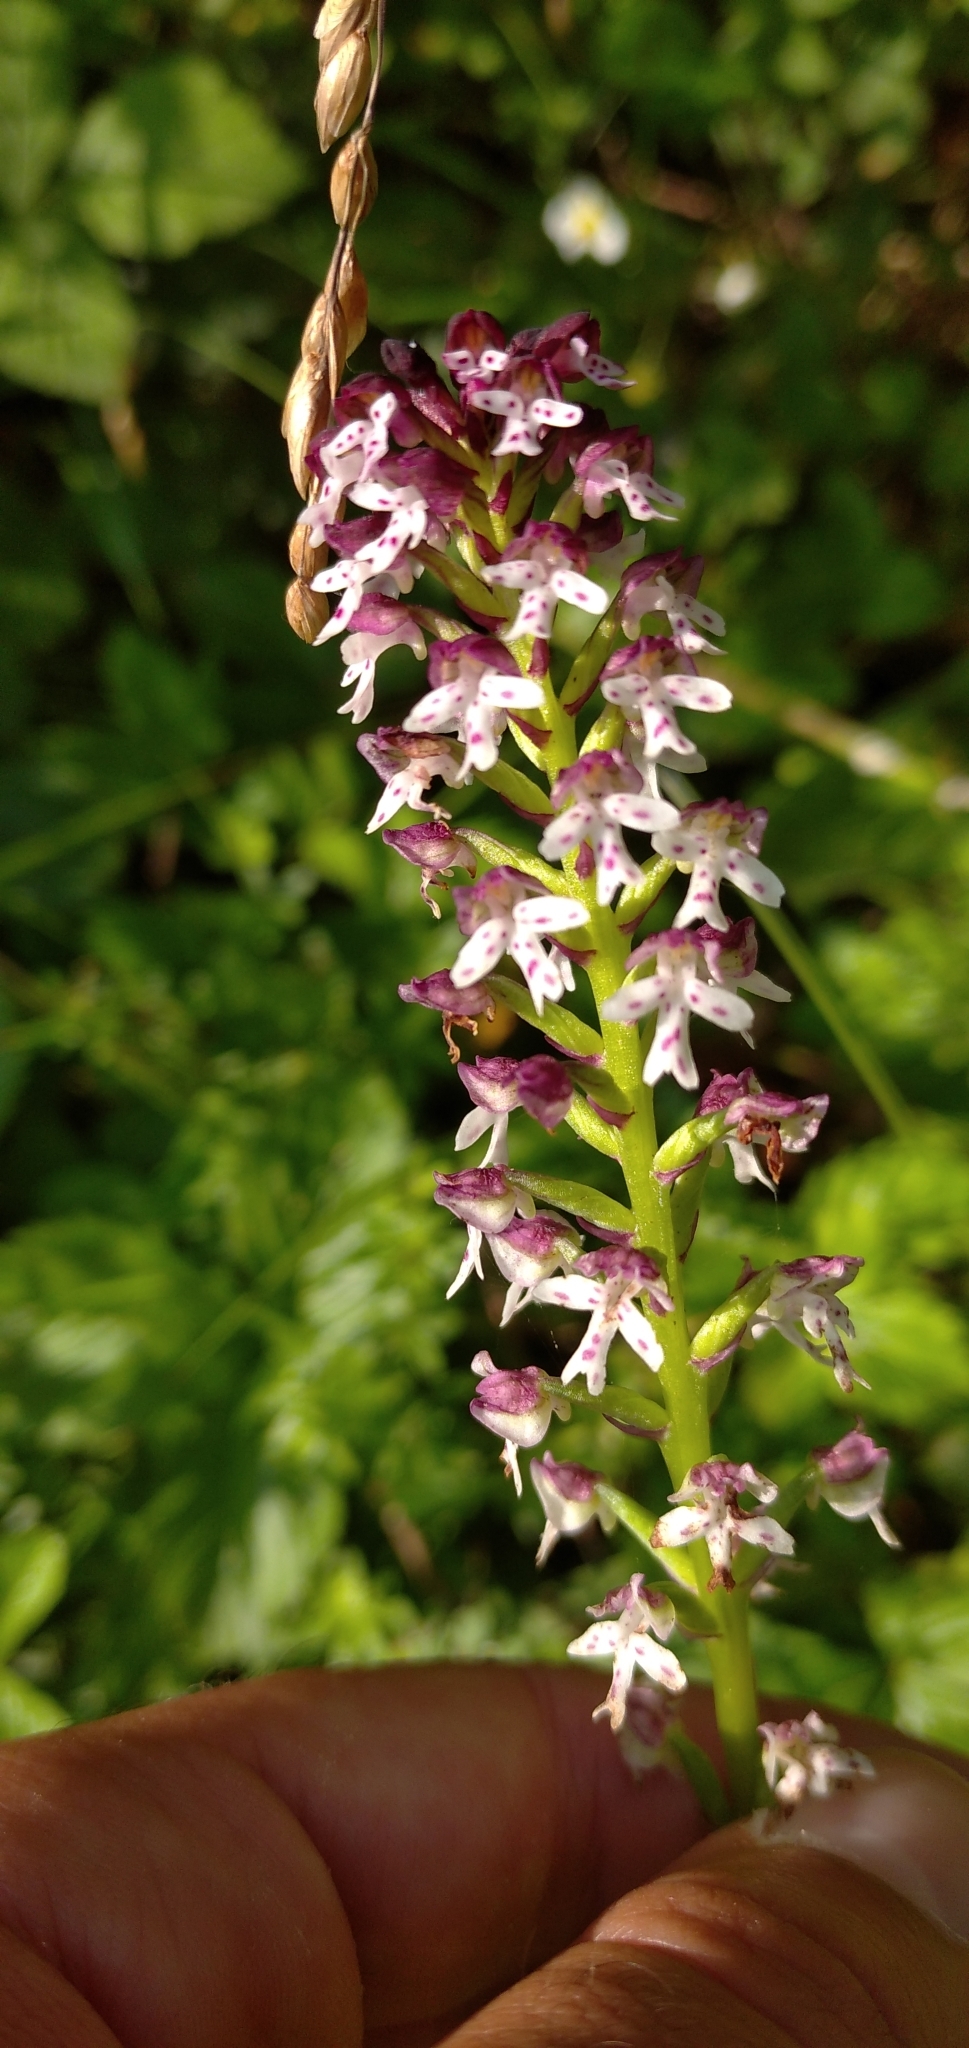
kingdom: Plantae
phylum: Tracheophyta
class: Liliopsida
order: Asparagales
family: Orchidaceae
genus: Neotinea
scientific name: Neotinea ustulata
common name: Burnt orchid
